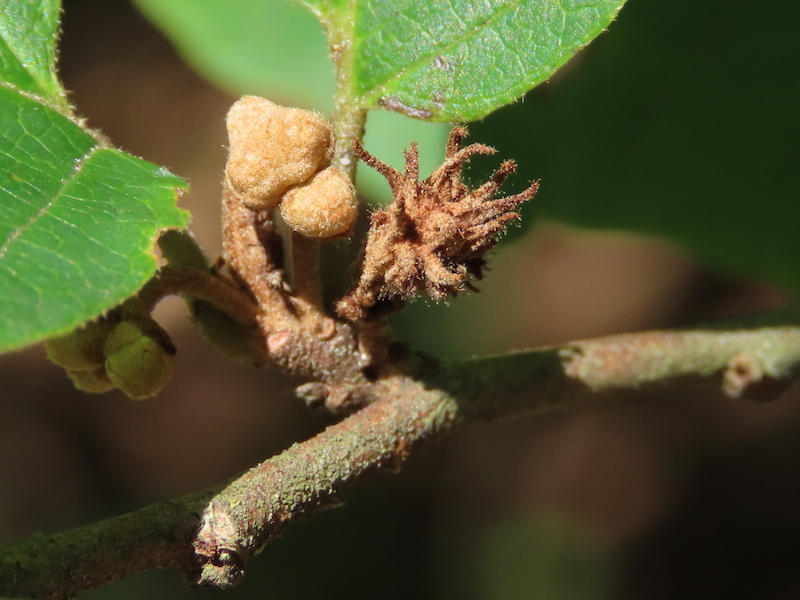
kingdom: Animalia
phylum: Arthropoda
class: Insecta
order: Hemiptera
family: Aphididae
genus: Hamamelistes
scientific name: Hamamelistes spinosus
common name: Witch hazel gall aphid
